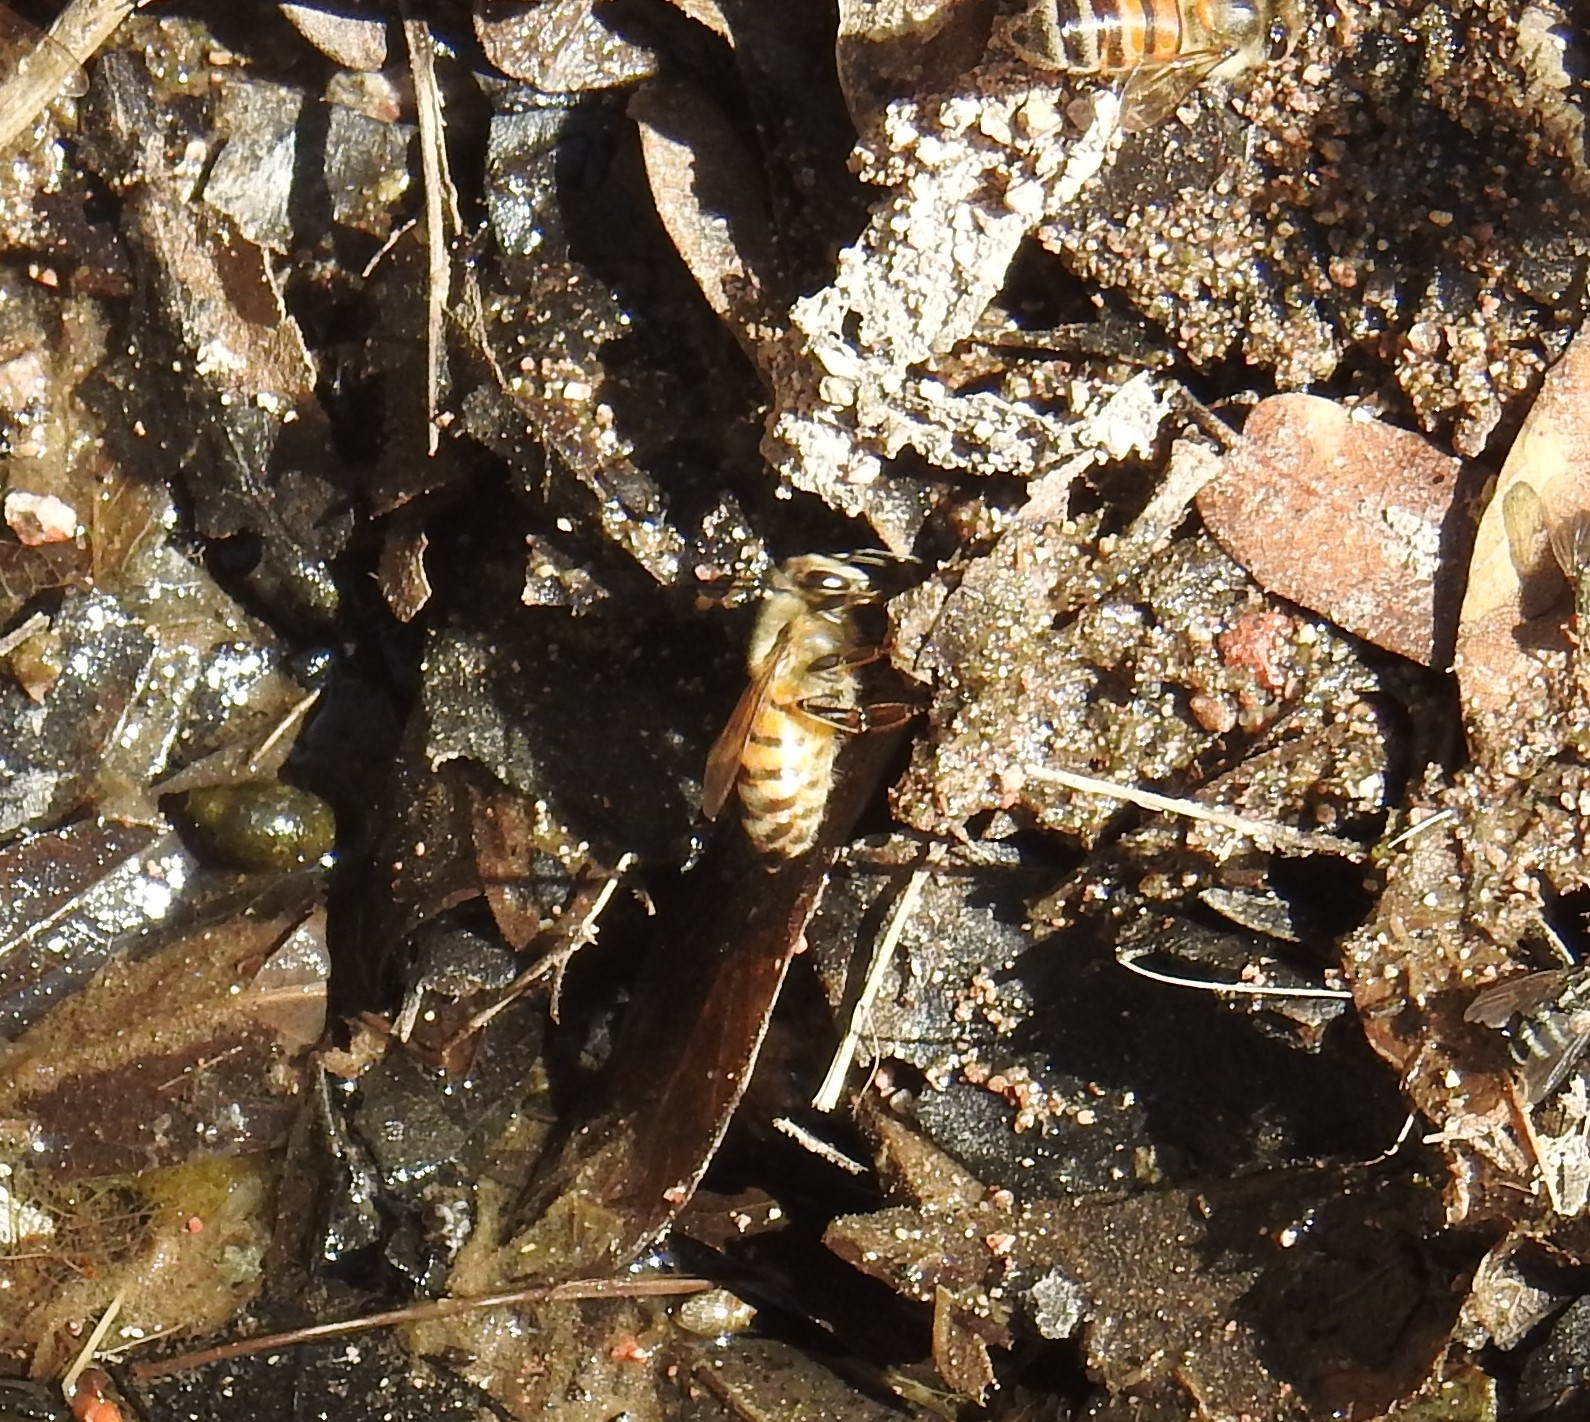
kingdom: Animalia
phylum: Arthropoda
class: Insecta
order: Hymenoptera
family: Apidae
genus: Apis
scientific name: Apis mellifera
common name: Honey bee
